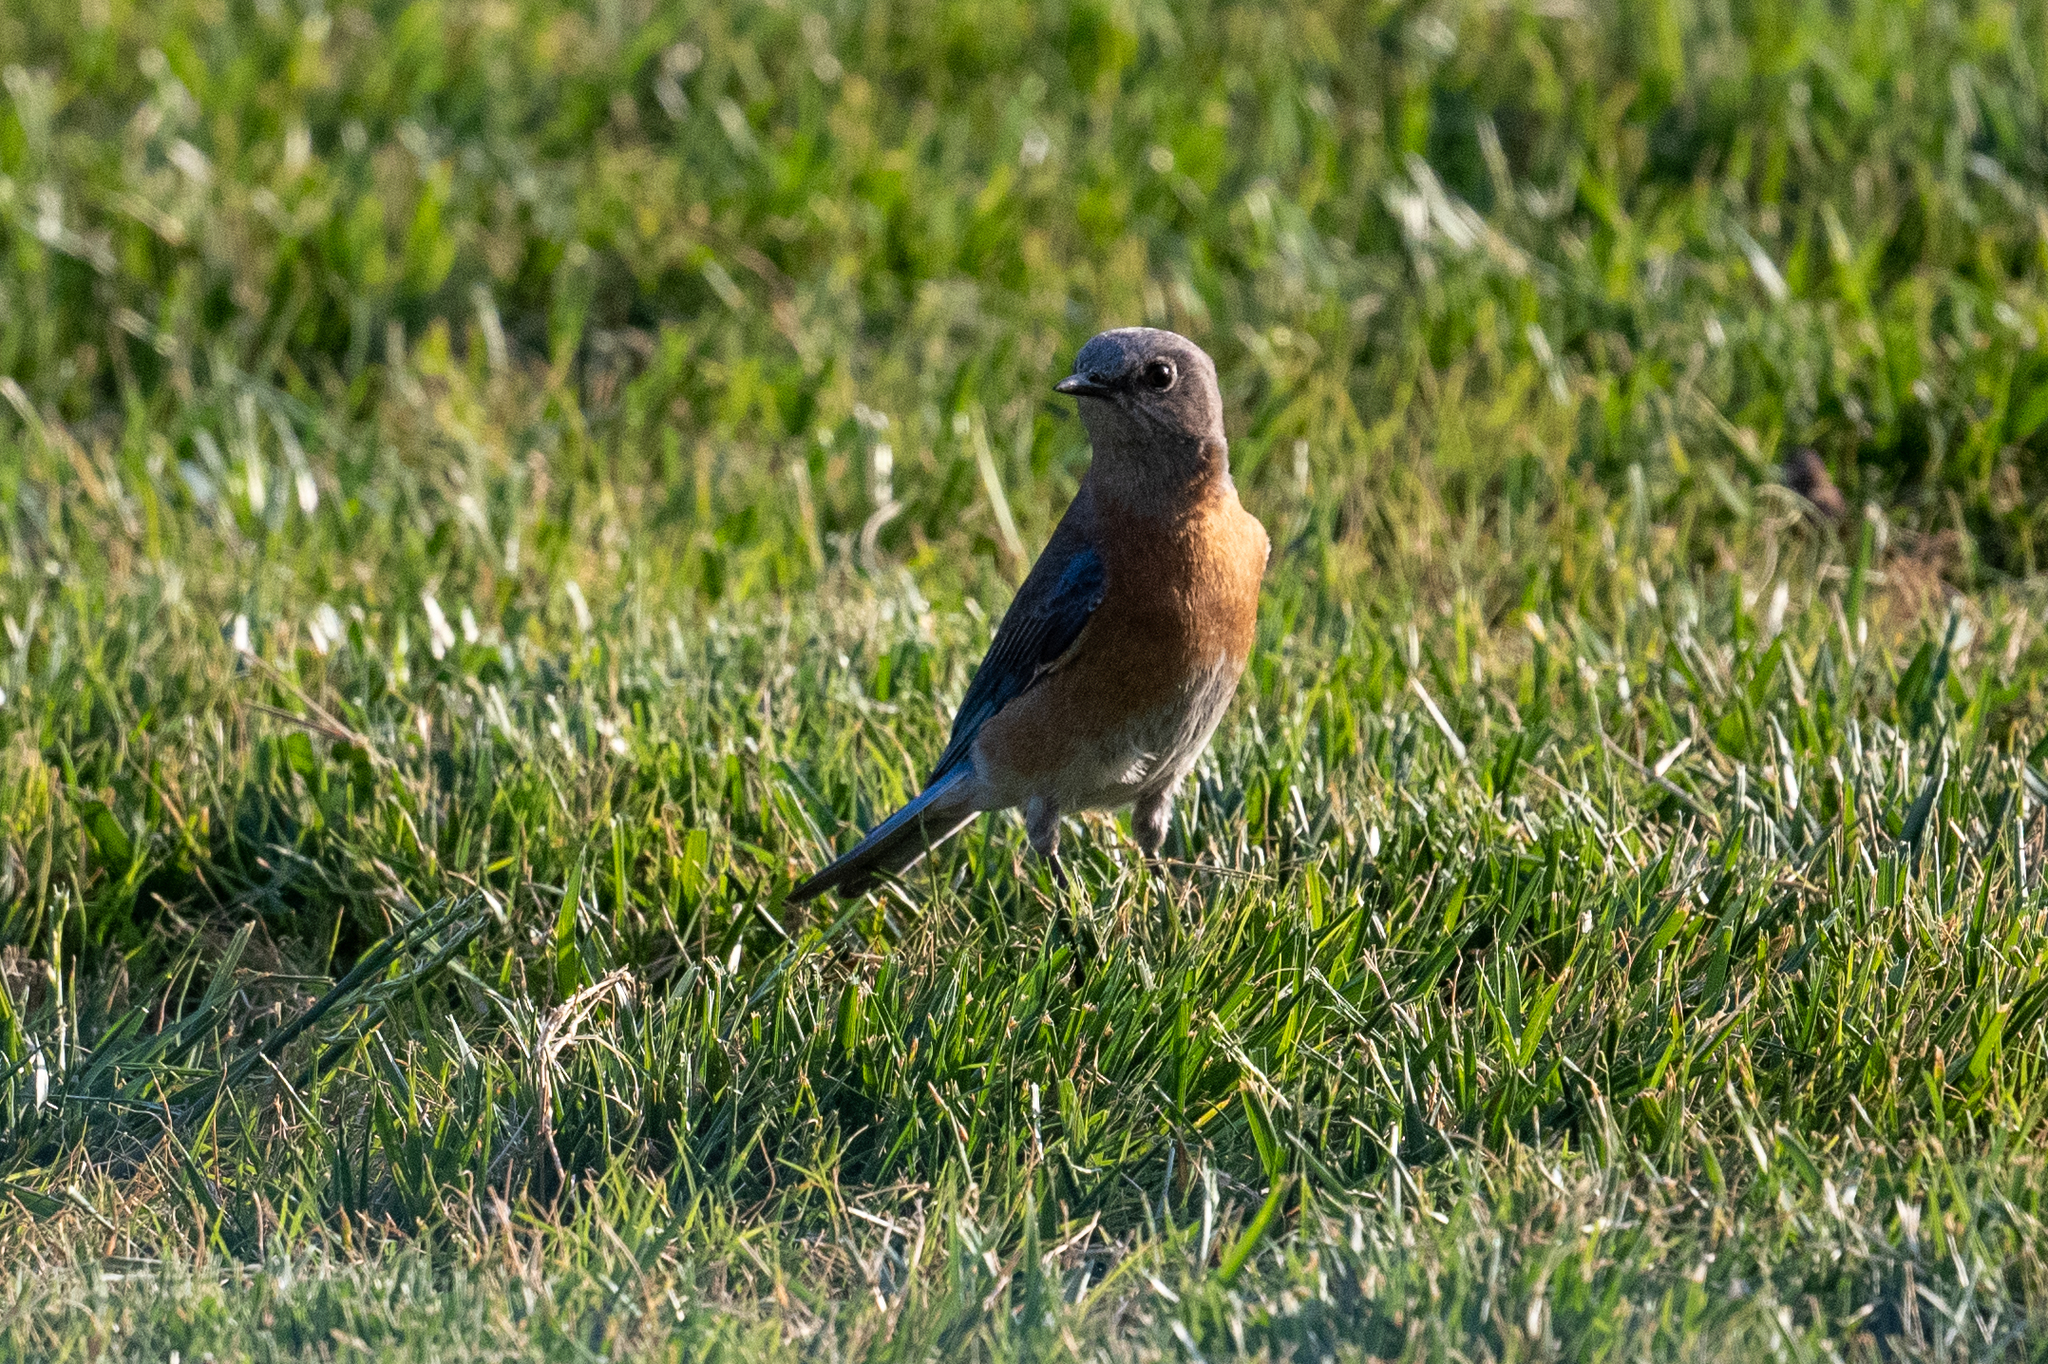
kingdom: Animalia
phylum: Chordata
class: Aves
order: Passeriformes
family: Turdidae
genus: Sialia
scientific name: Sialia mexicana
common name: Western bluebird
